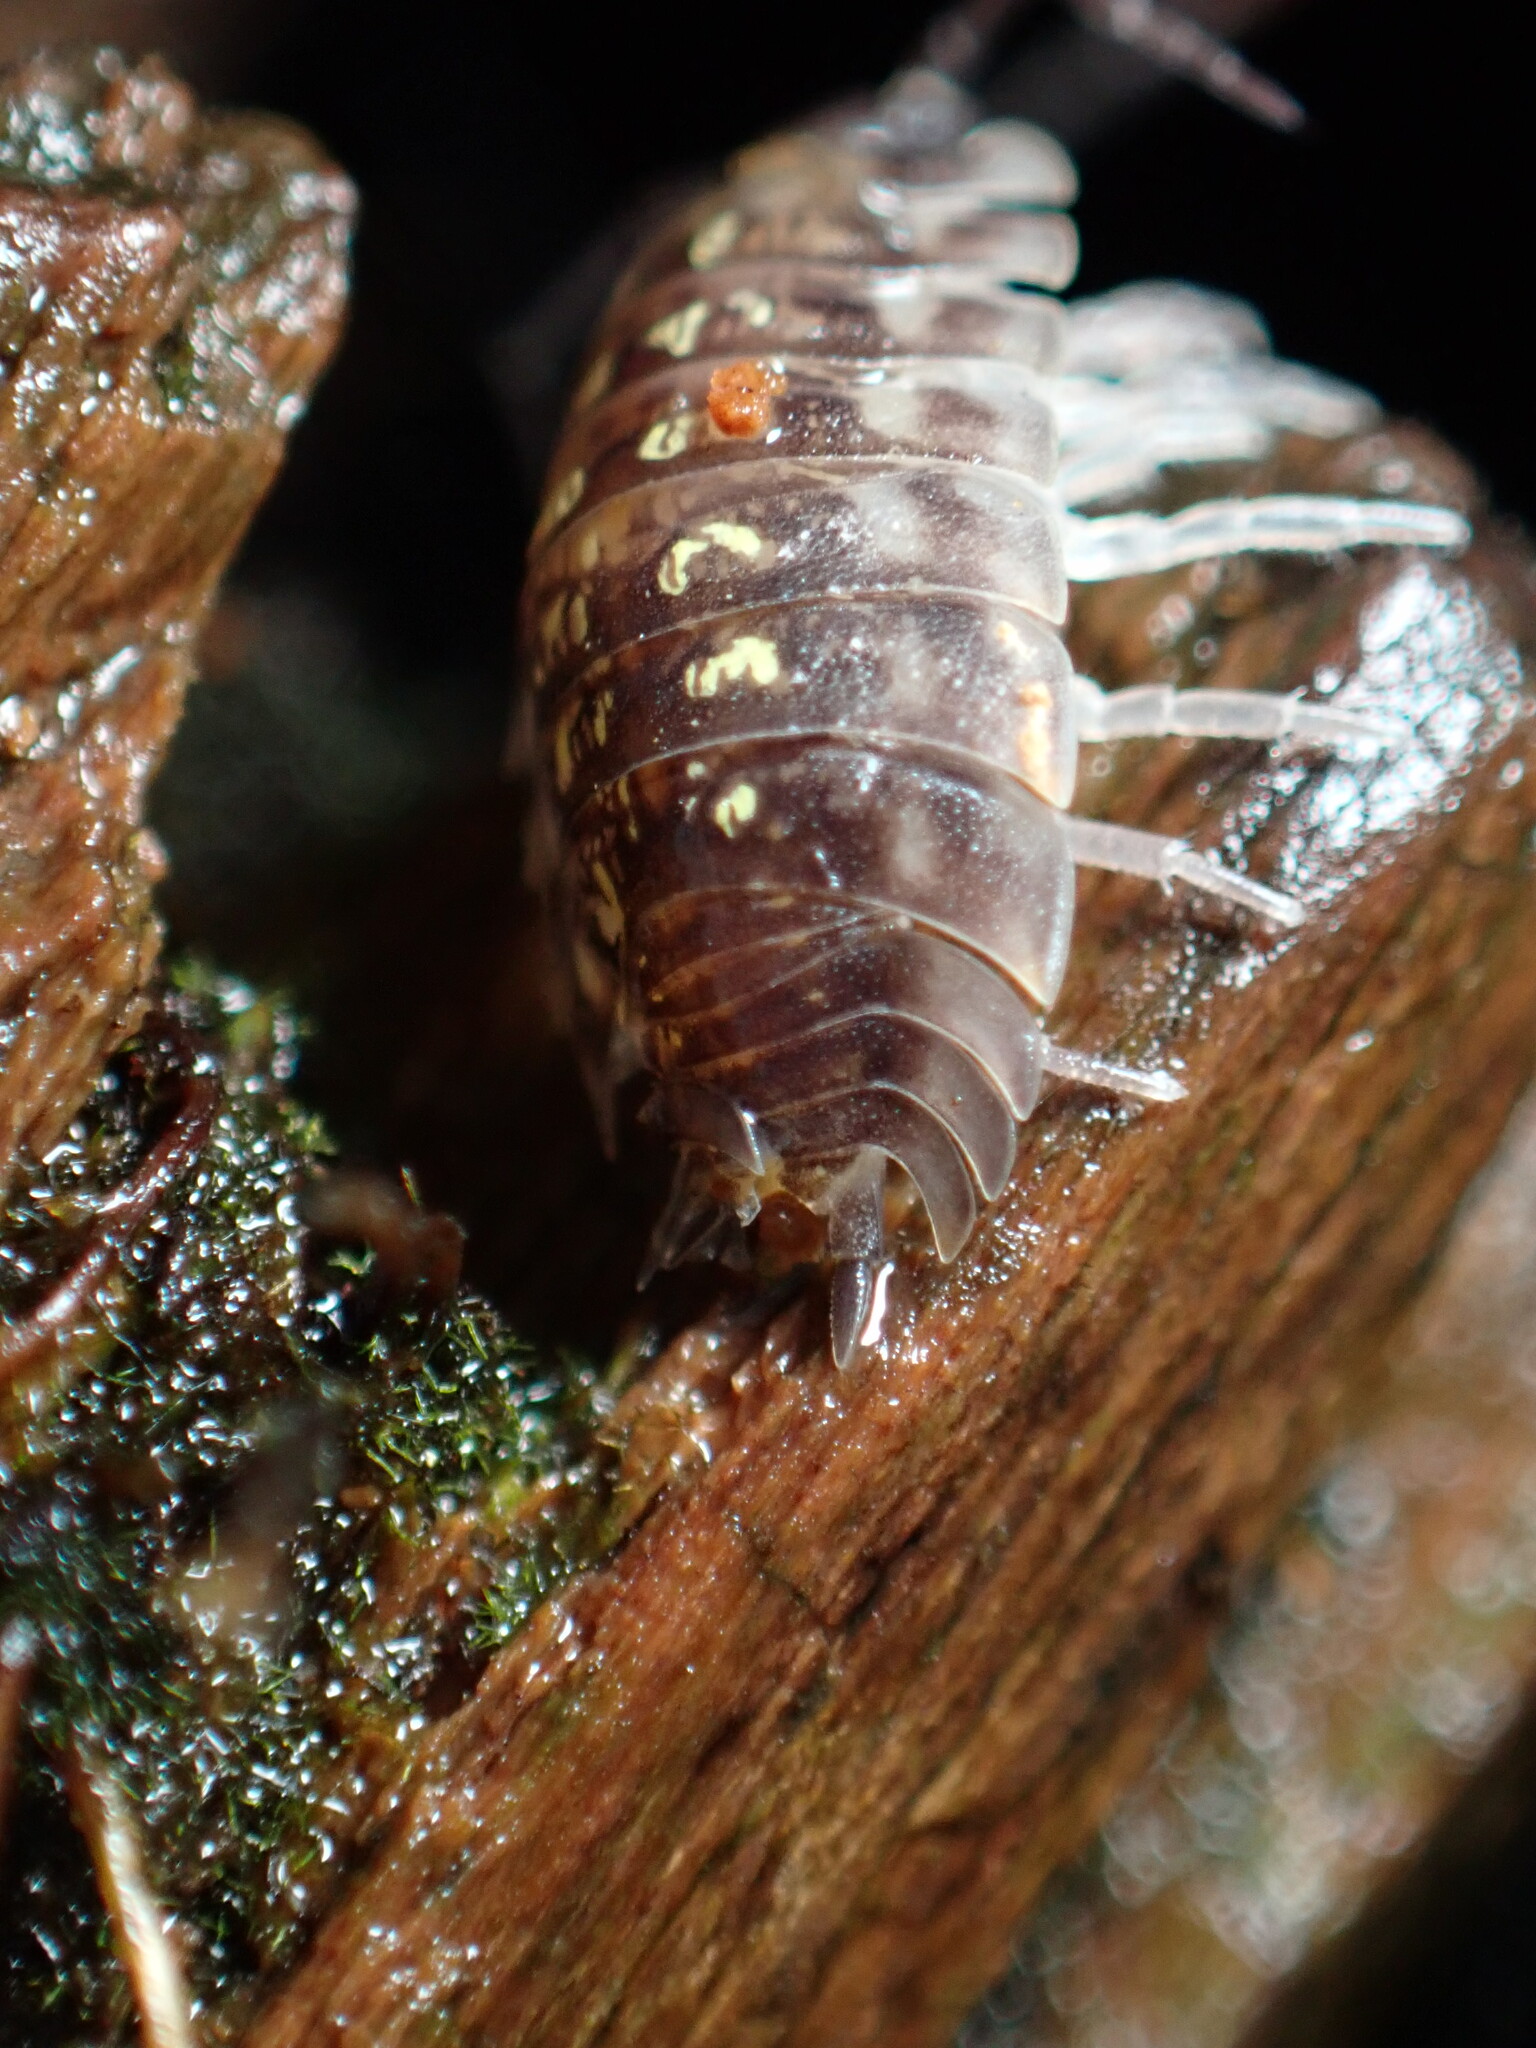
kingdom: Animalia
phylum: Arthropoda
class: Malacostraca
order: Isopoda
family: Oniscidae
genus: Oniscus
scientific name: Oniscus asellus
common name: Common shiny woodlouse
